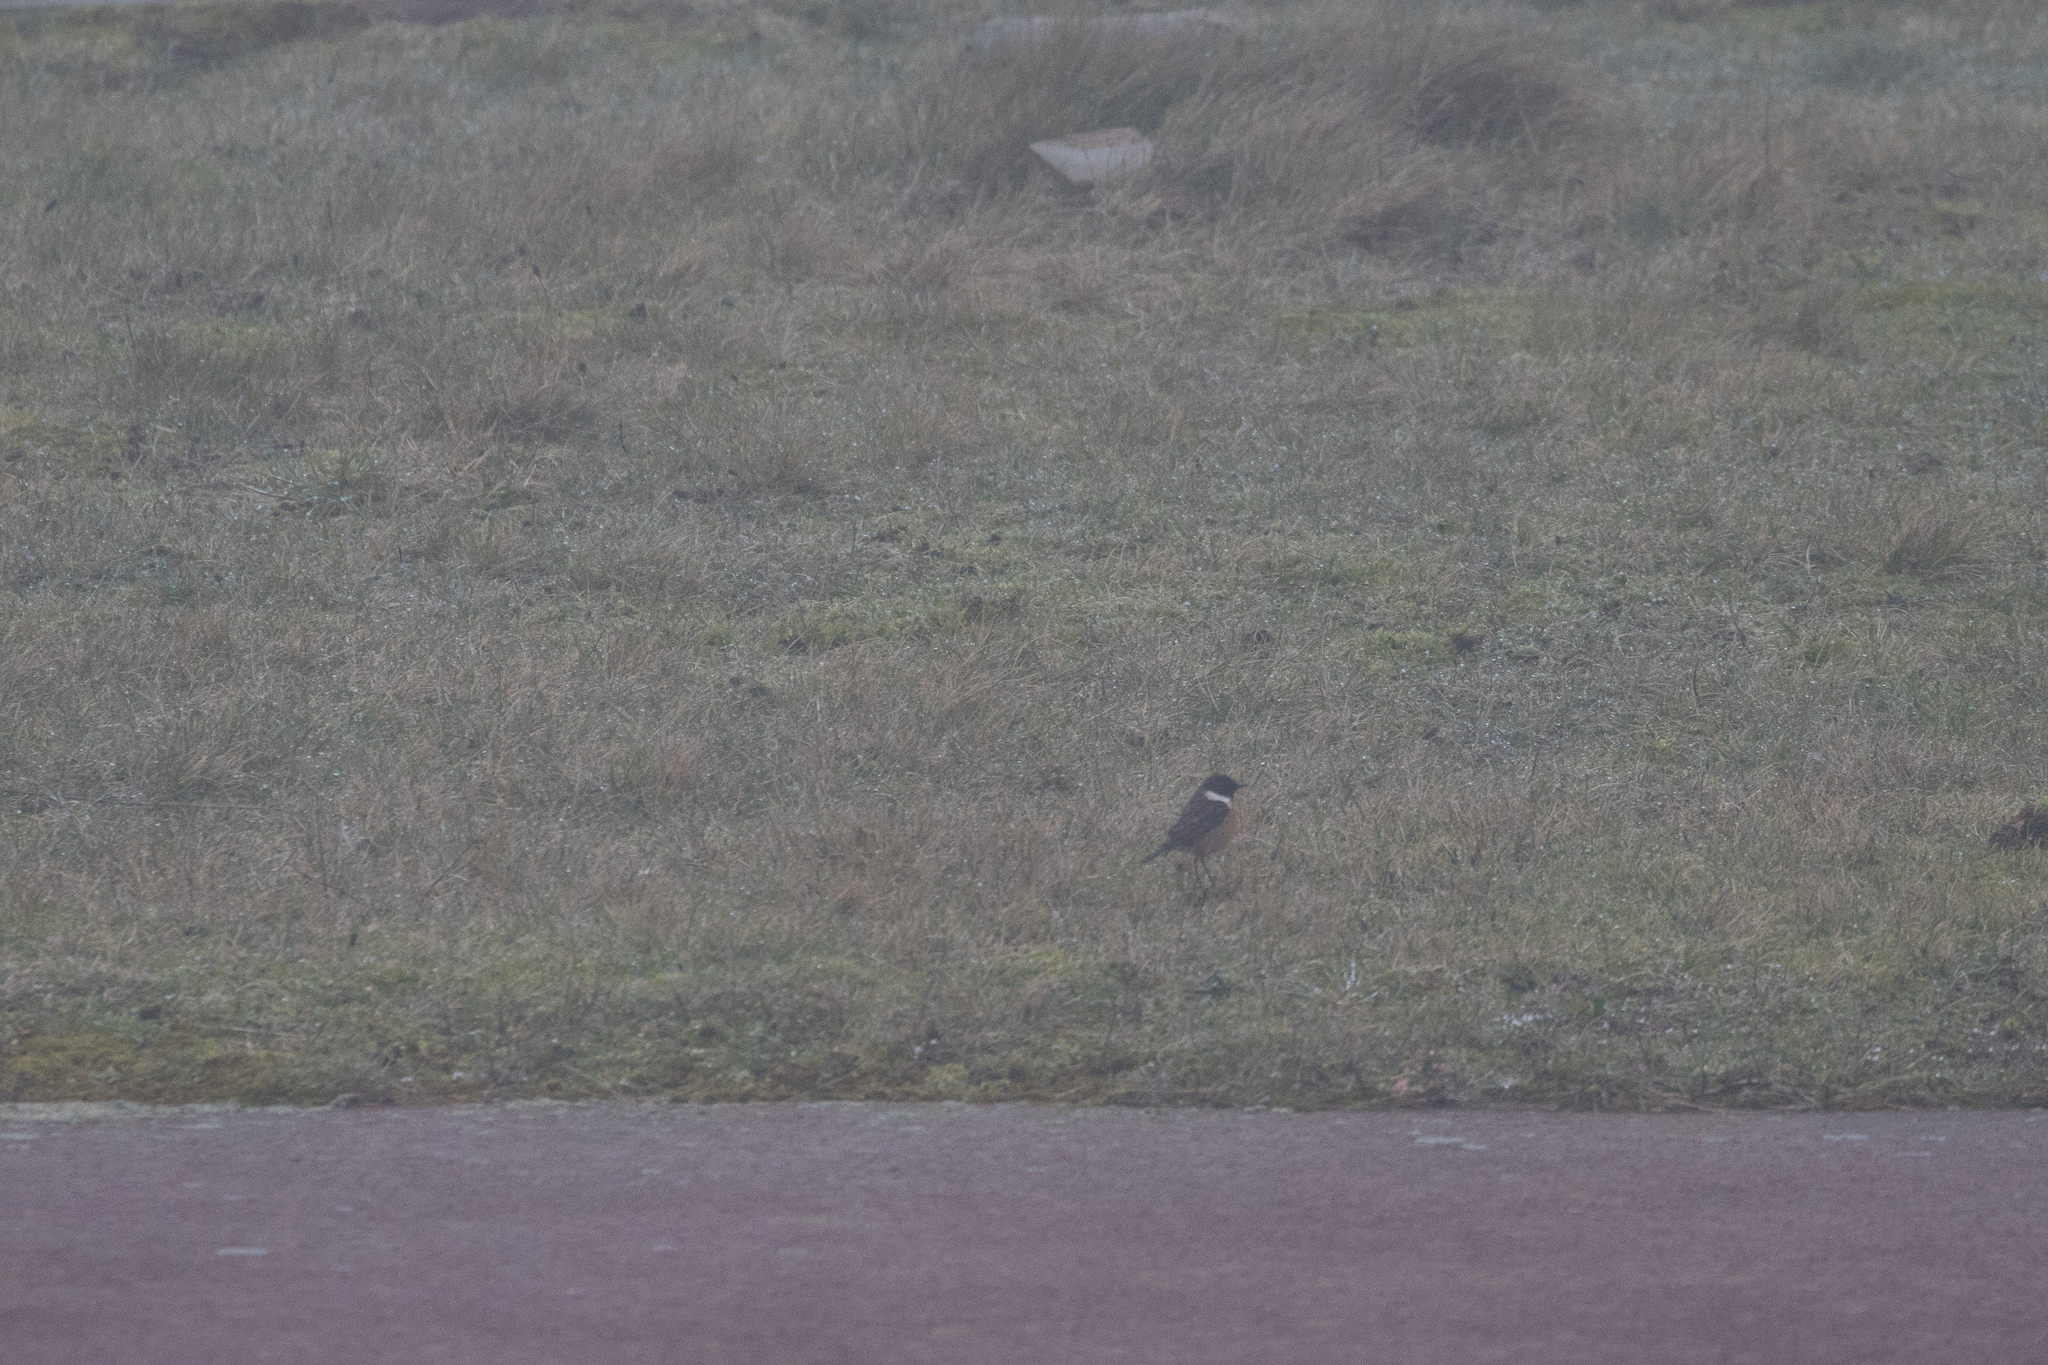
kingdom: Animalia
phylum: Chordata
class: Aves
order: Passeriformes
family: Muscicapidae
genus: Saxicola
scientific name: Saxicola rubicola
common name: European stonechat
